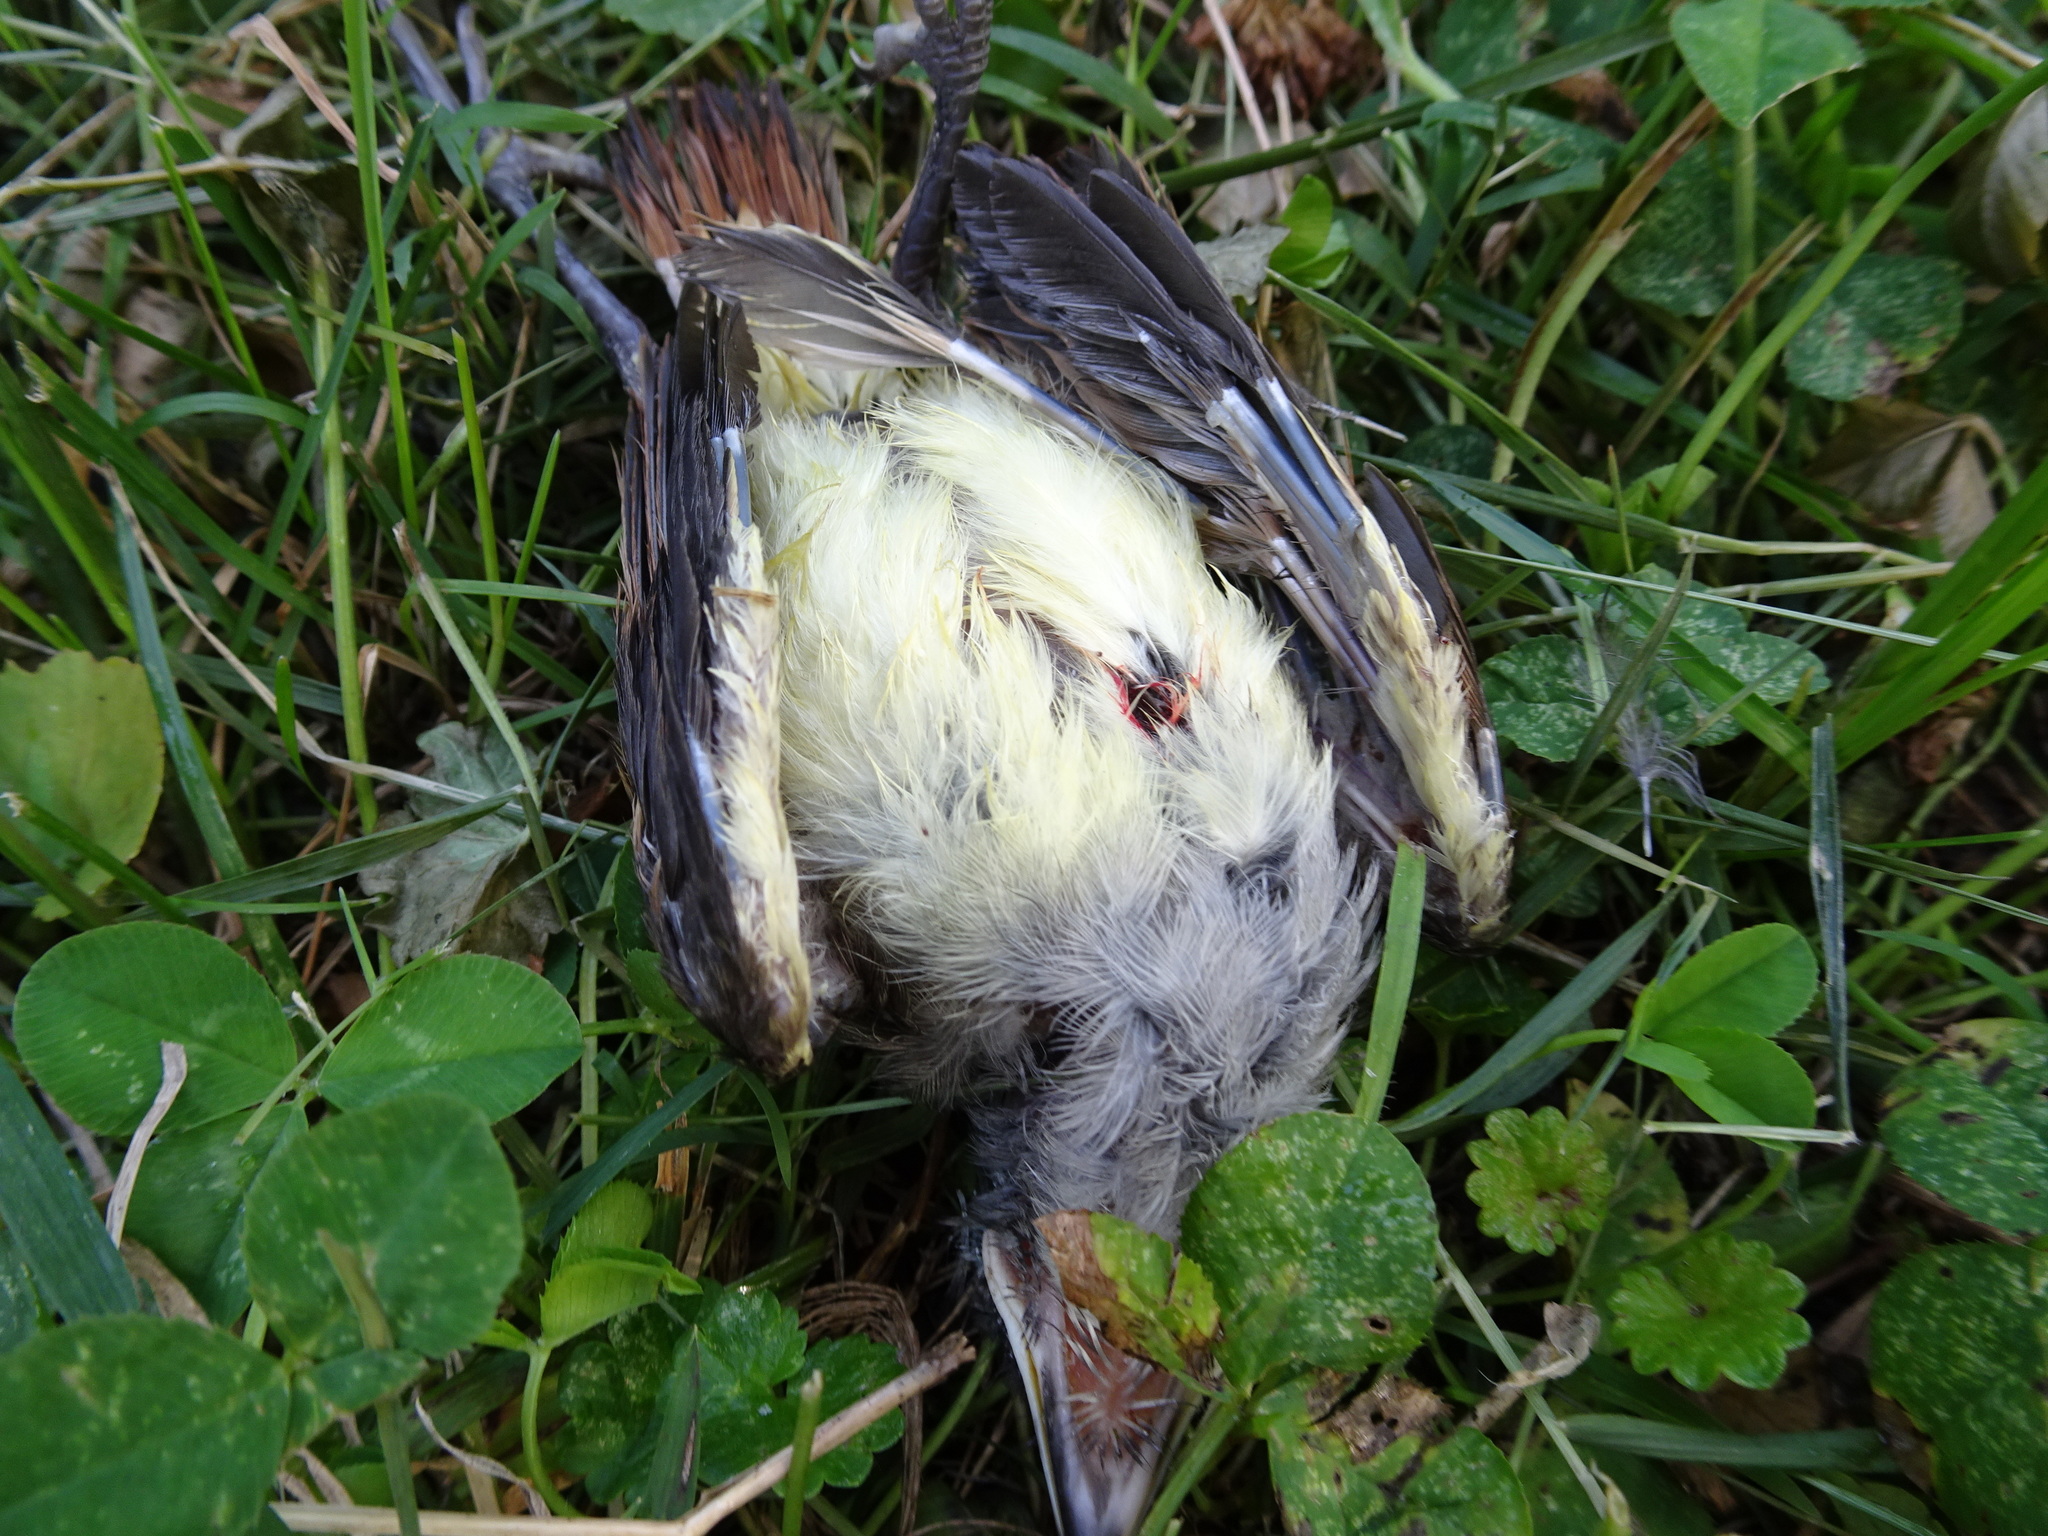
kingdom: Animalia
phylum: Chordata
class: Aves
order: Passeriformes
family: Tyrannidae
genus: Myiarchus
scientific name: Myiarchus crinitus
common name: Great crested flycatcher
